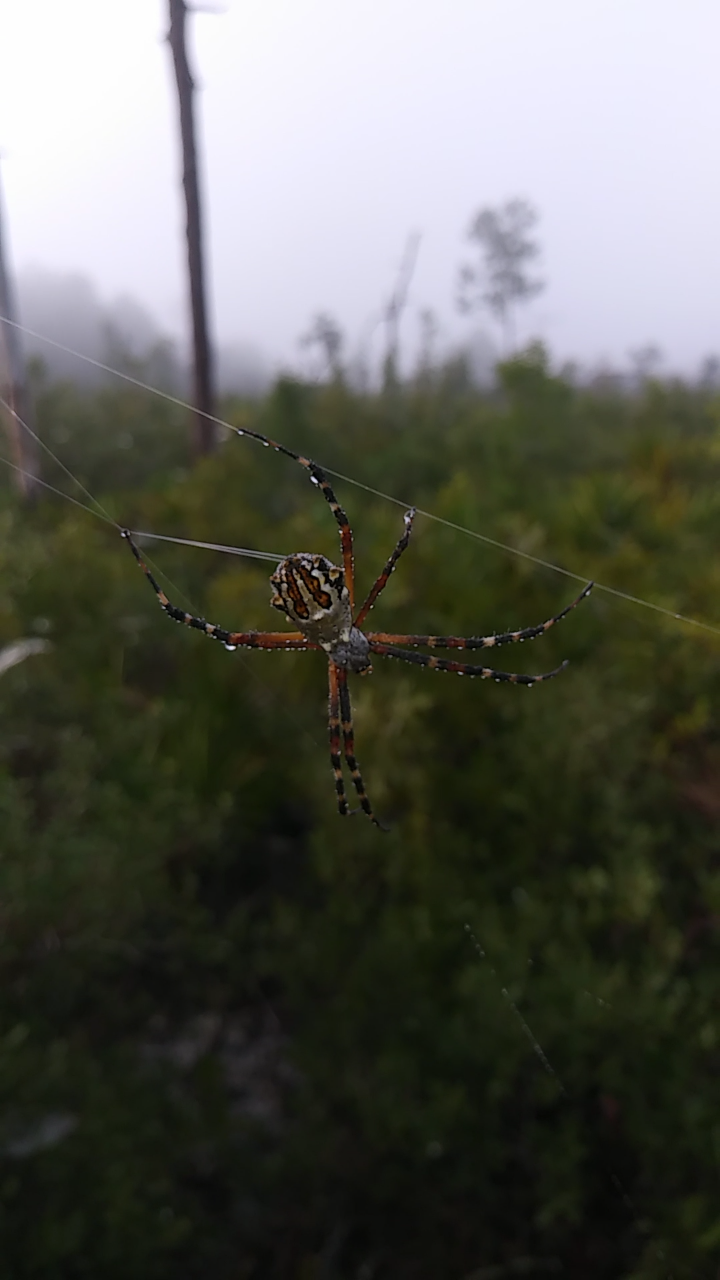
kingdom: Animalia
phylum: Arthropoda
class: Arachnida
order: Araneae
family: Araneidae
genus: Argiope
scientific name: Argiope florida
